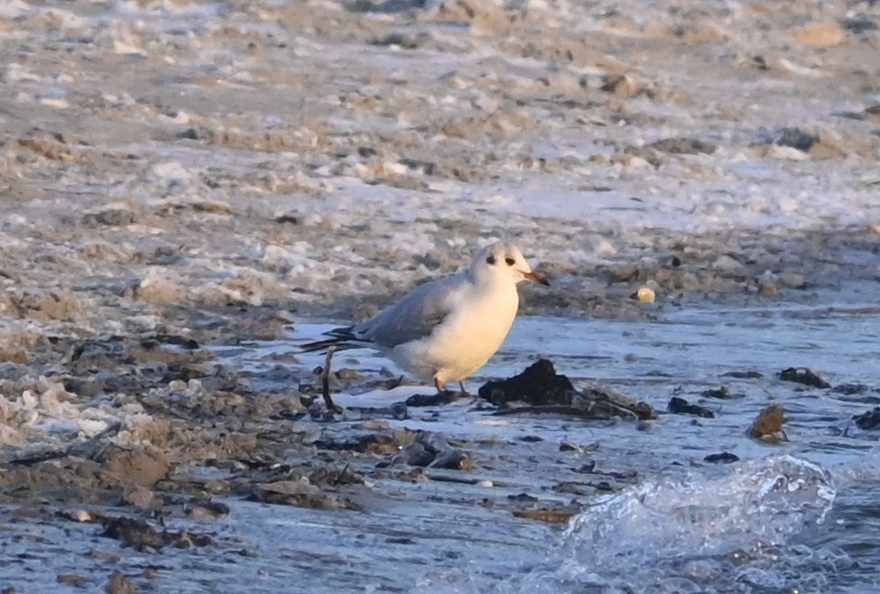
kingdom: Animalia
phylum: Chordata
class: Aves
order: Charadriiformes
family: Laridae
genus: Chroicocephalus
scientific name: Chroicocephalus ridibundus
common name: Black-headed gull
